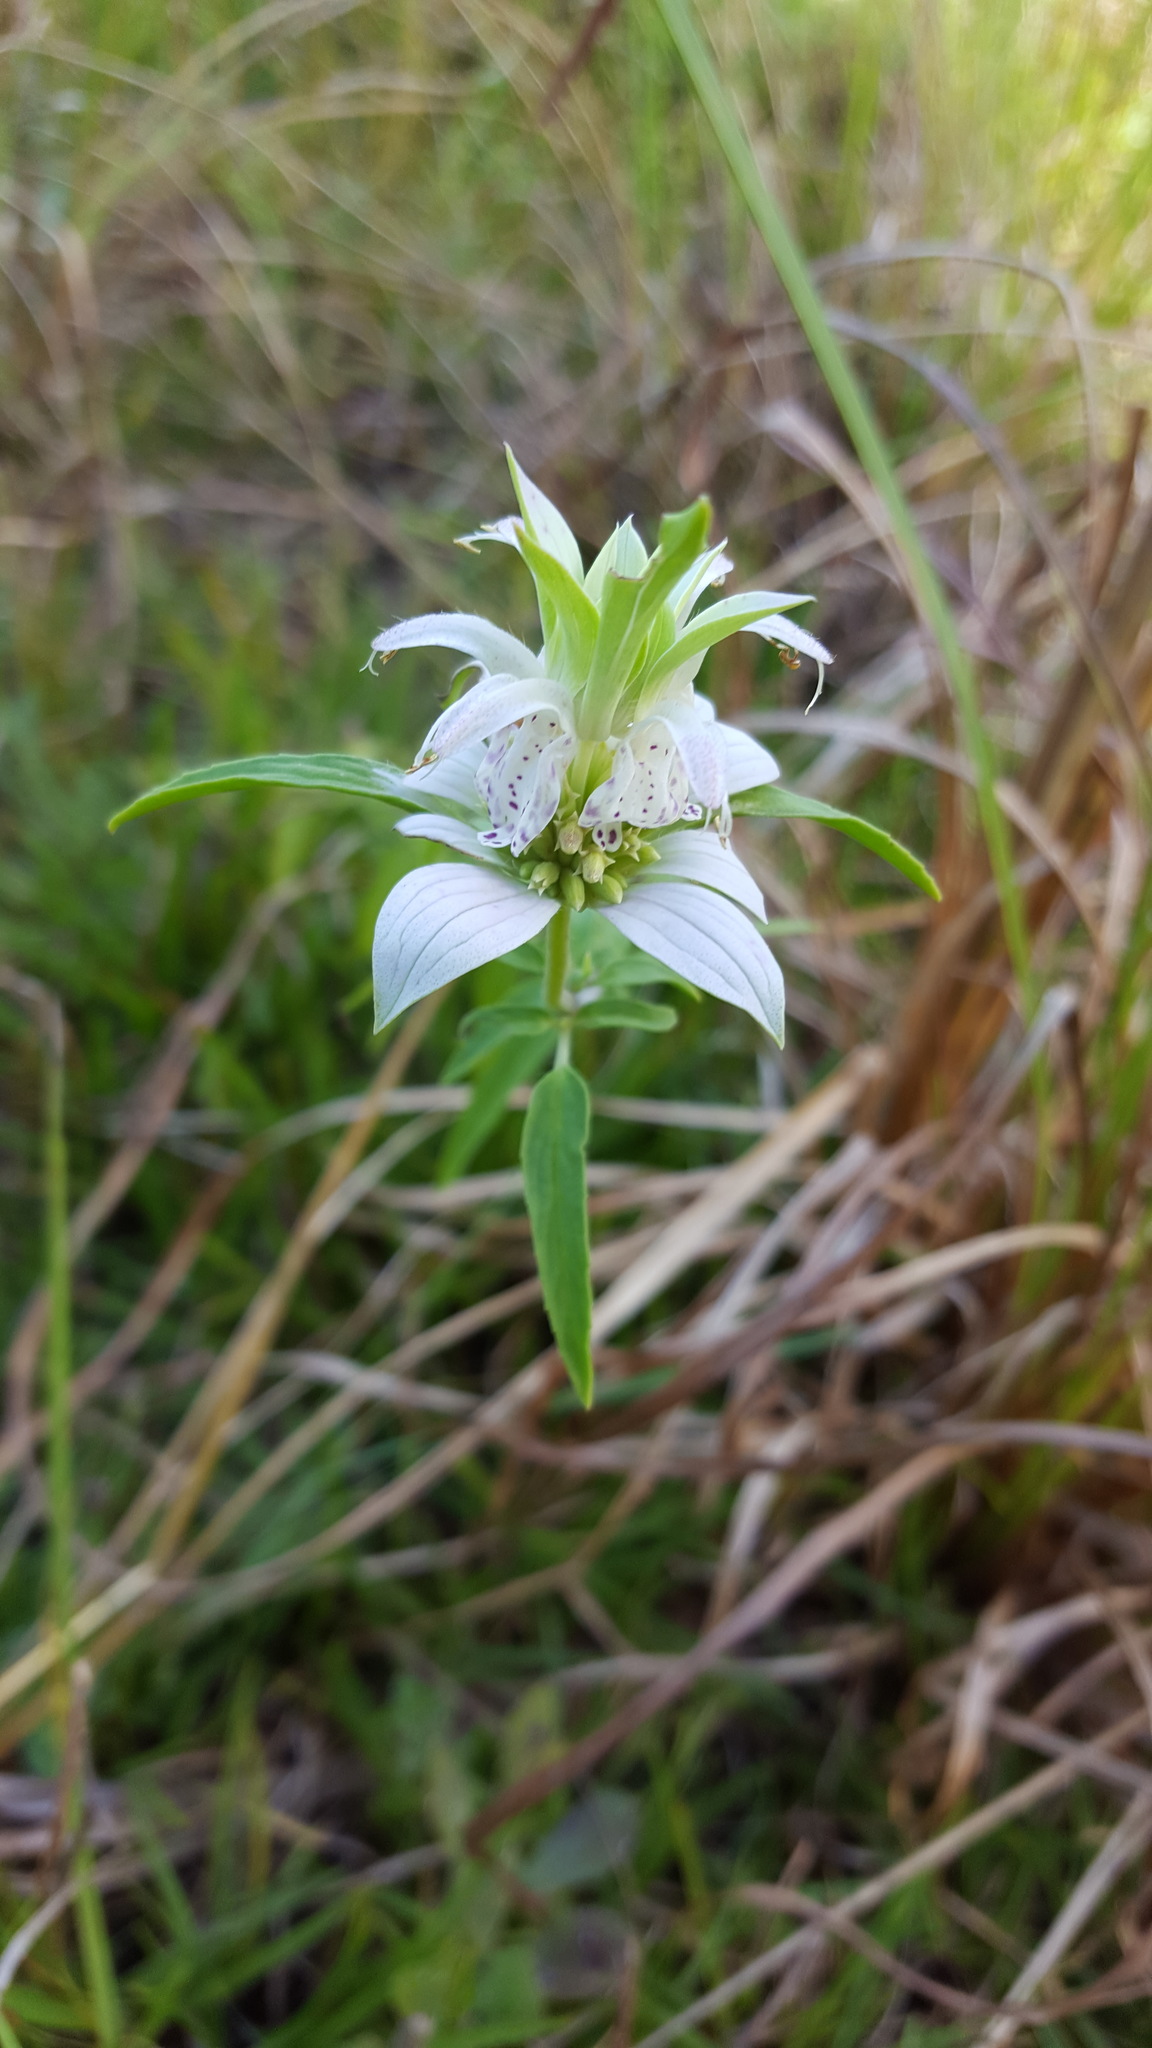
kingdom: Plantae
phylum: Tracheophyta
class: Magnoliopsida
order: Lamiales
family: Lamiaceae
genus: Monarda
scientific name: Monarda punctata
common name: Dotted monarda
